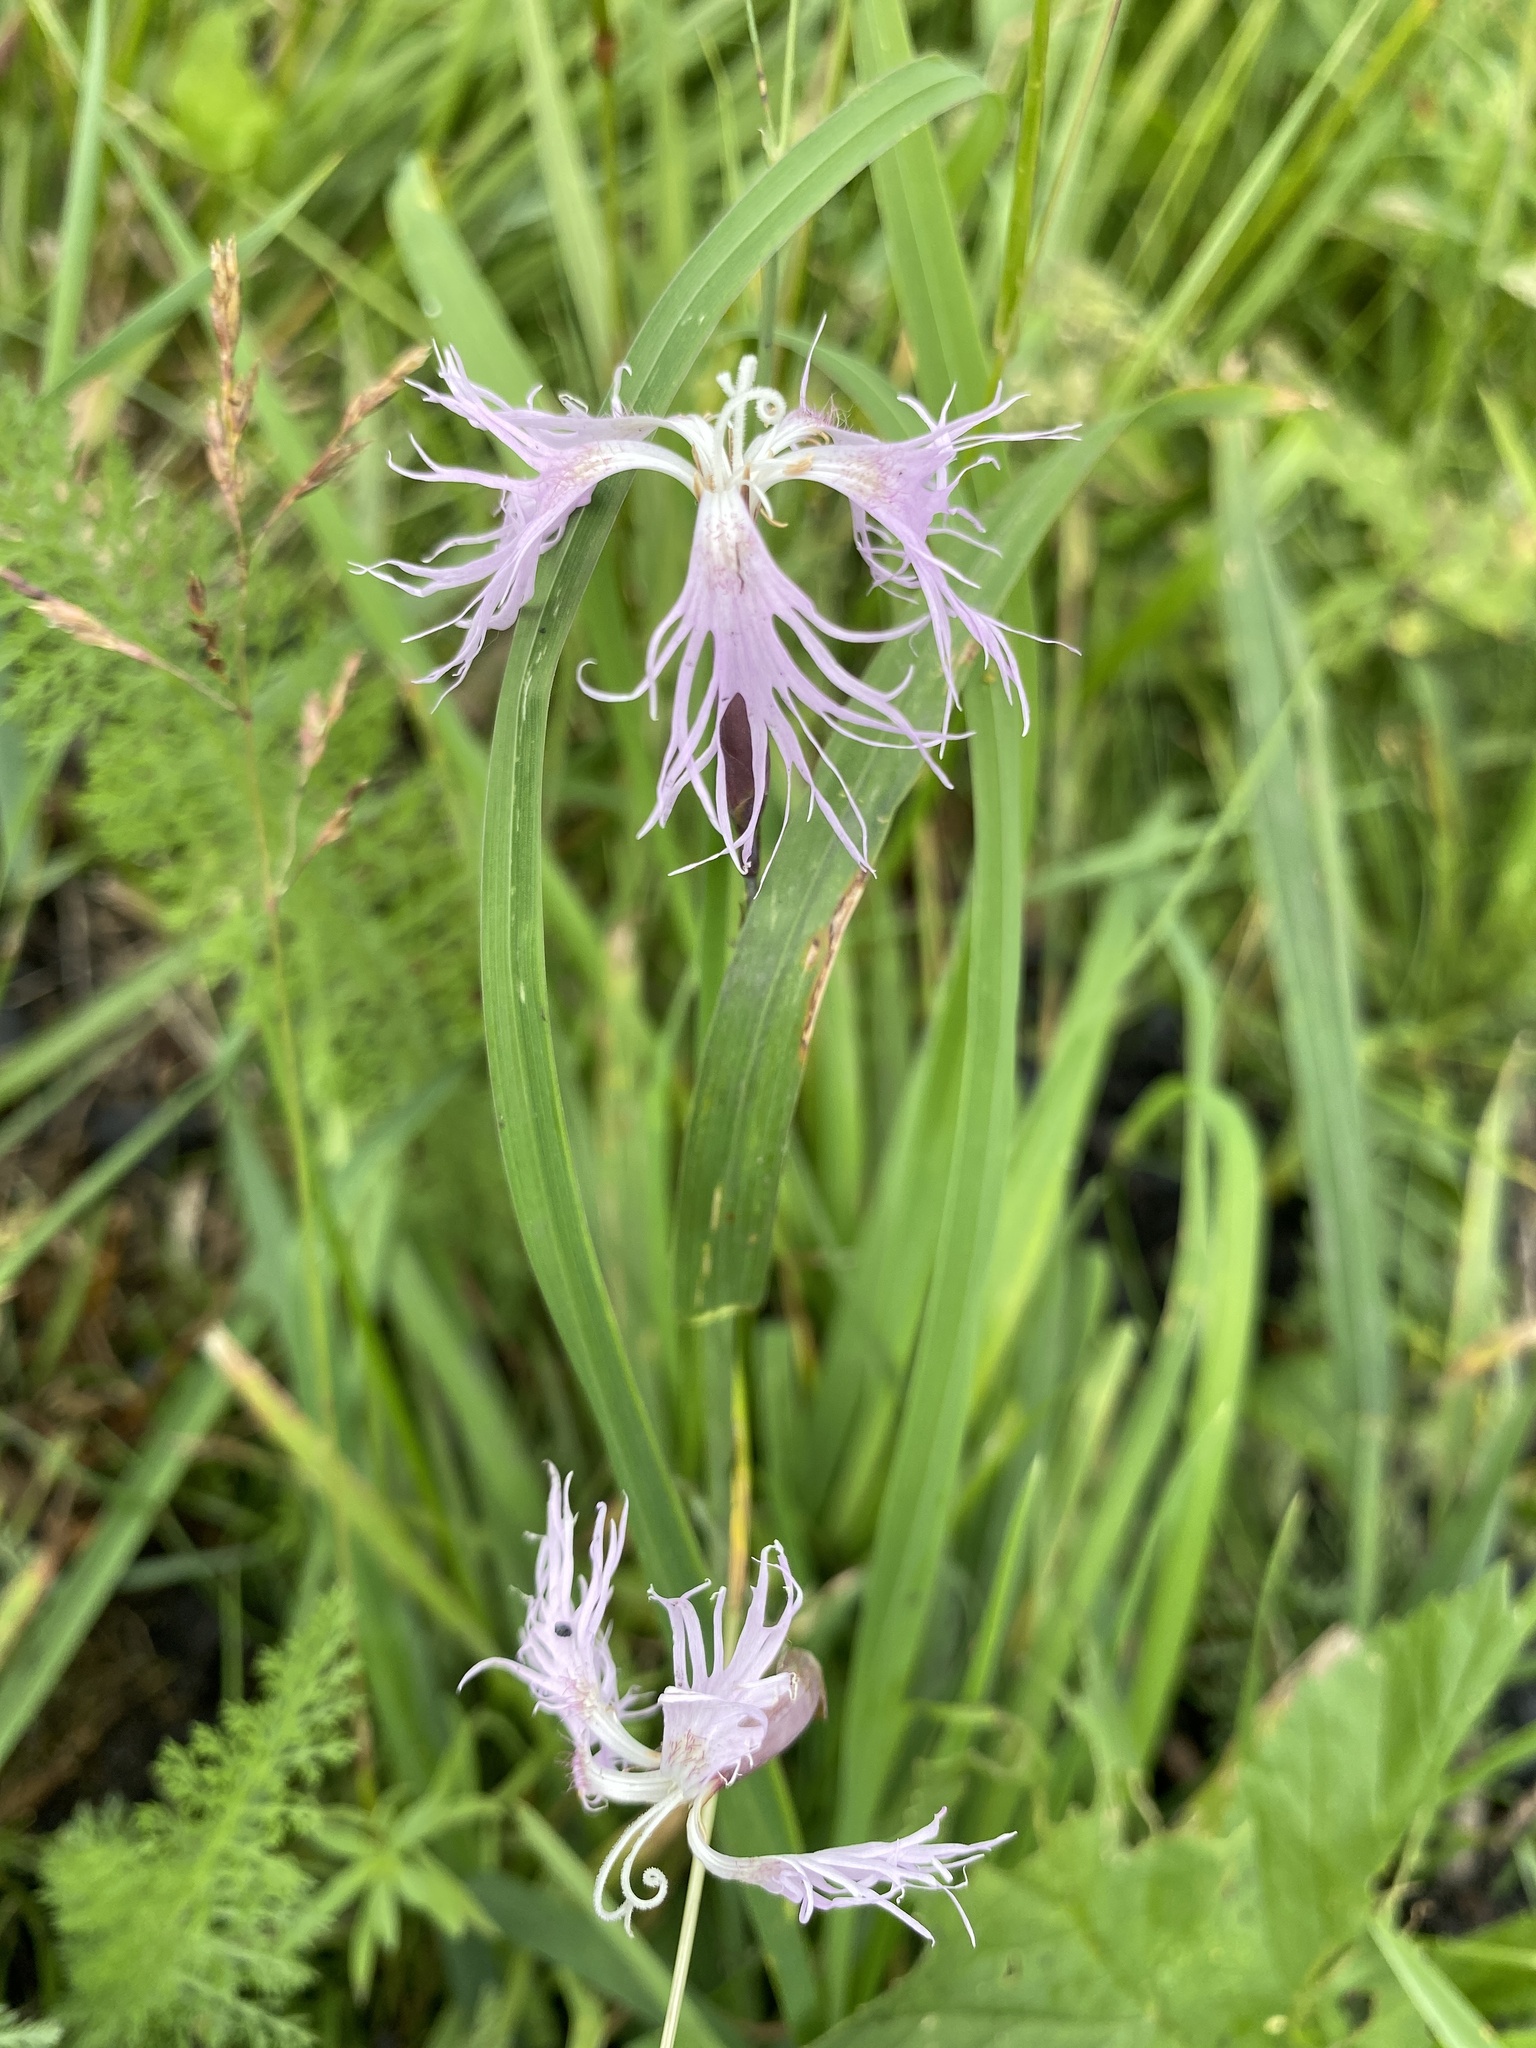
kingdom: Plantae
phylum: Tracheophyta
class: Magnoliopsida
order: Caryophyllales
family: Caryophyllaceae
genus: Dianthus
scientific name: Dianthus superbus
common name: Fringed pink
